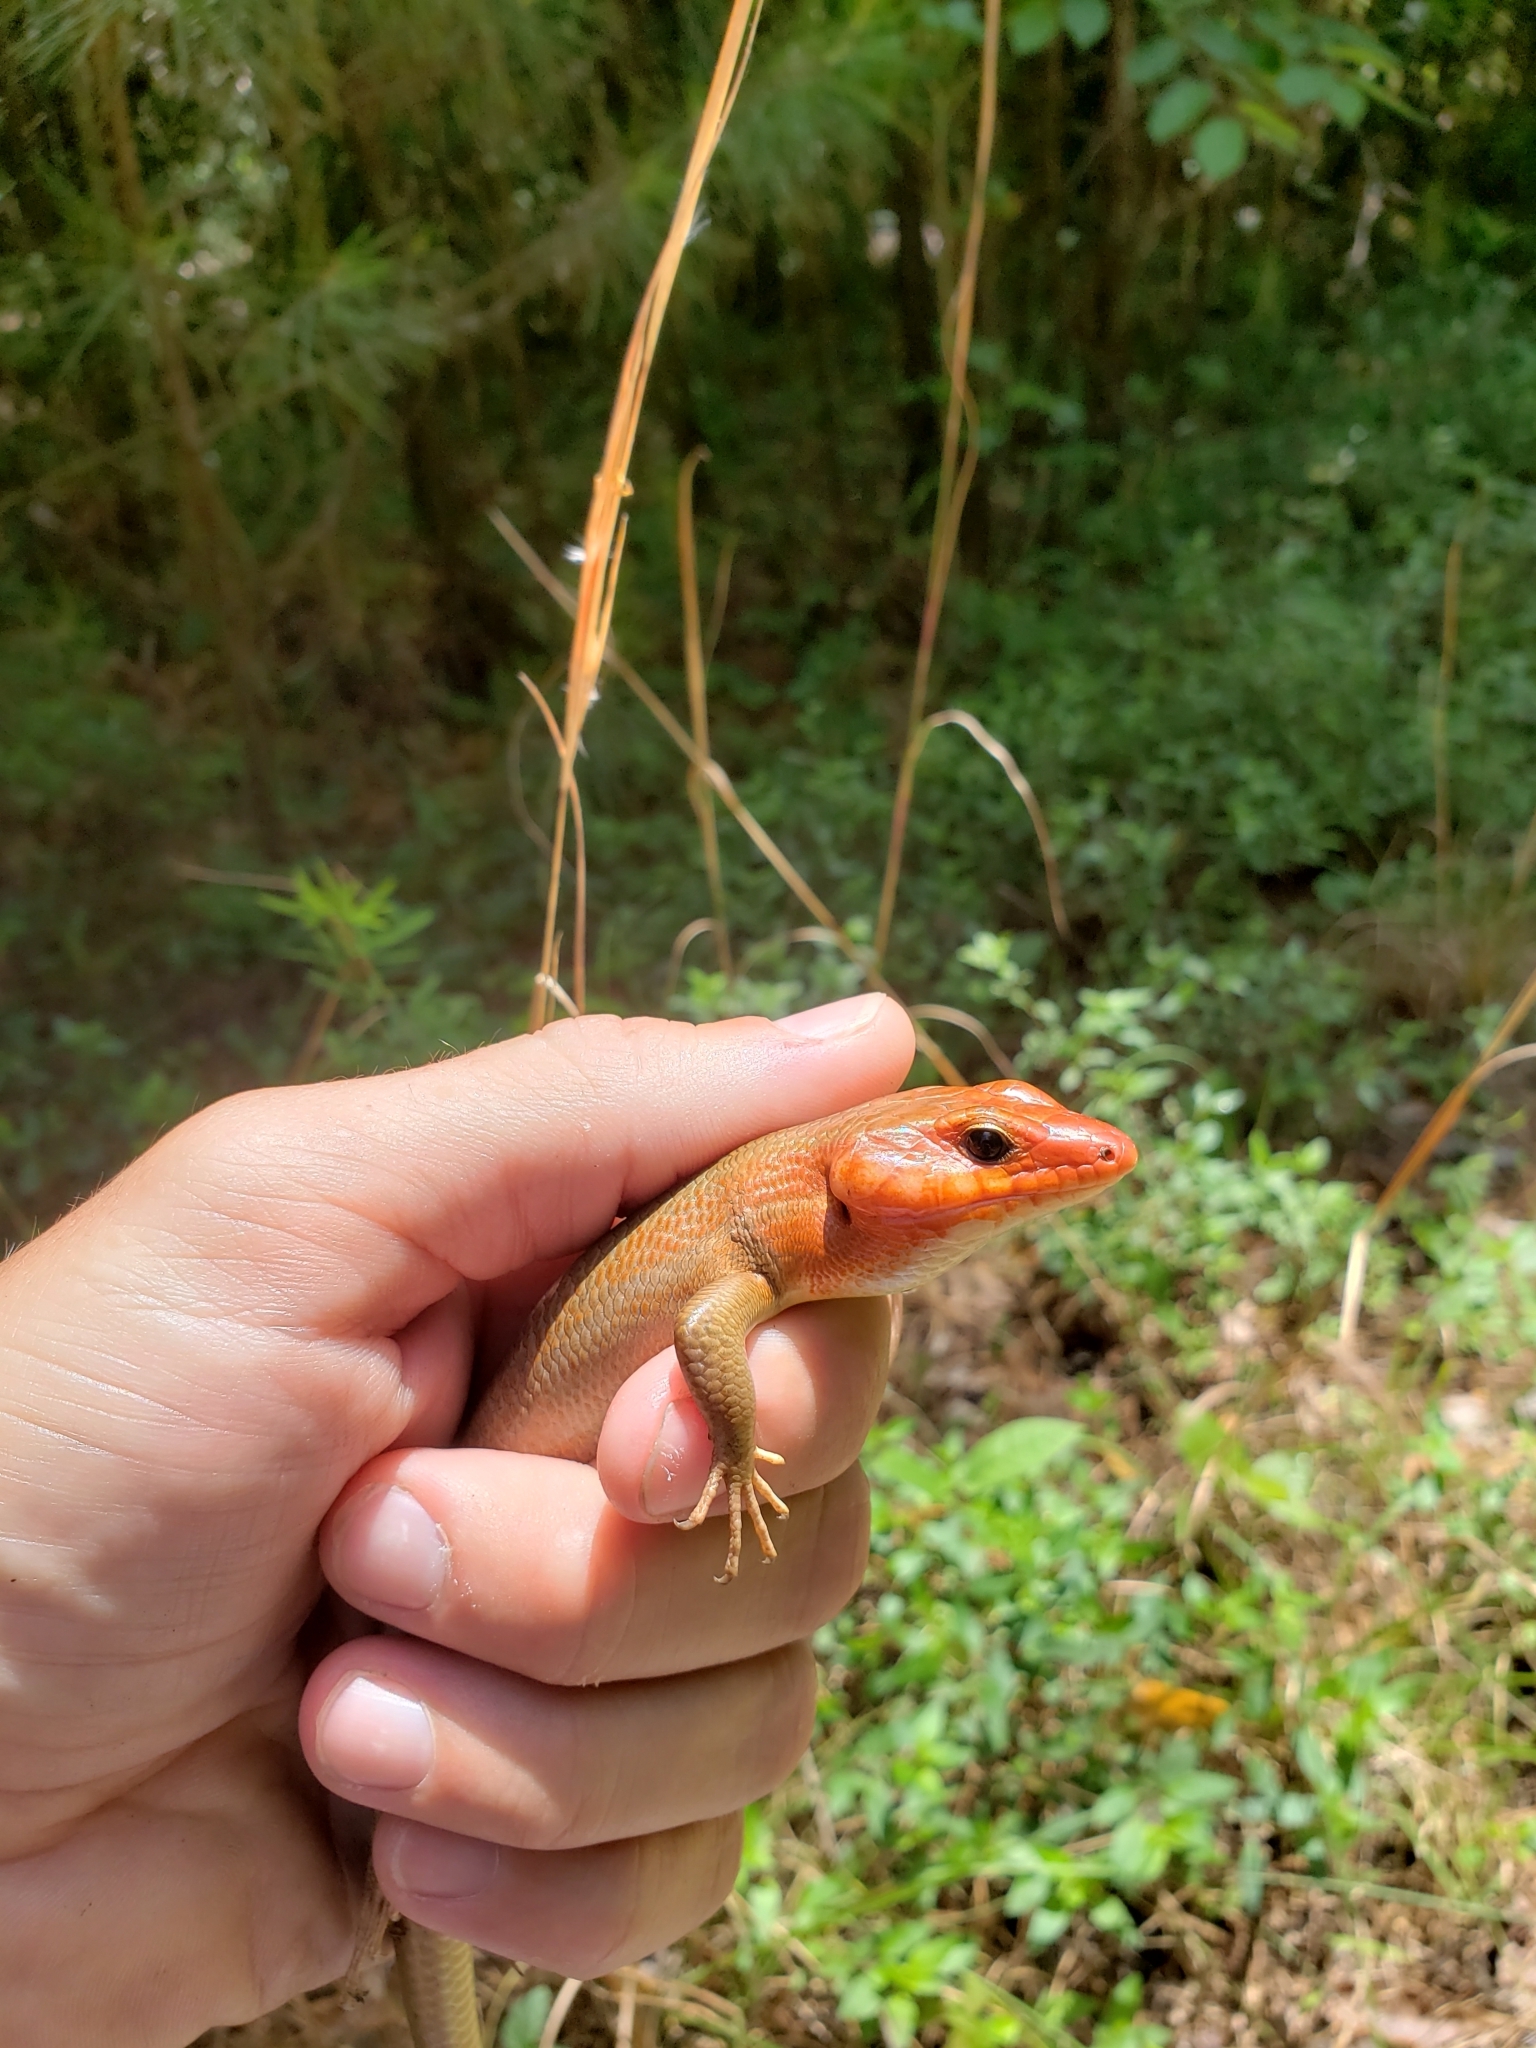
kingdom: Animalia
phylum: Chordata
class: Squamata
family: Scincidae
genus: Plestiodon
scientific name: Plestiodon laticeps
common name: Broadhead skink
